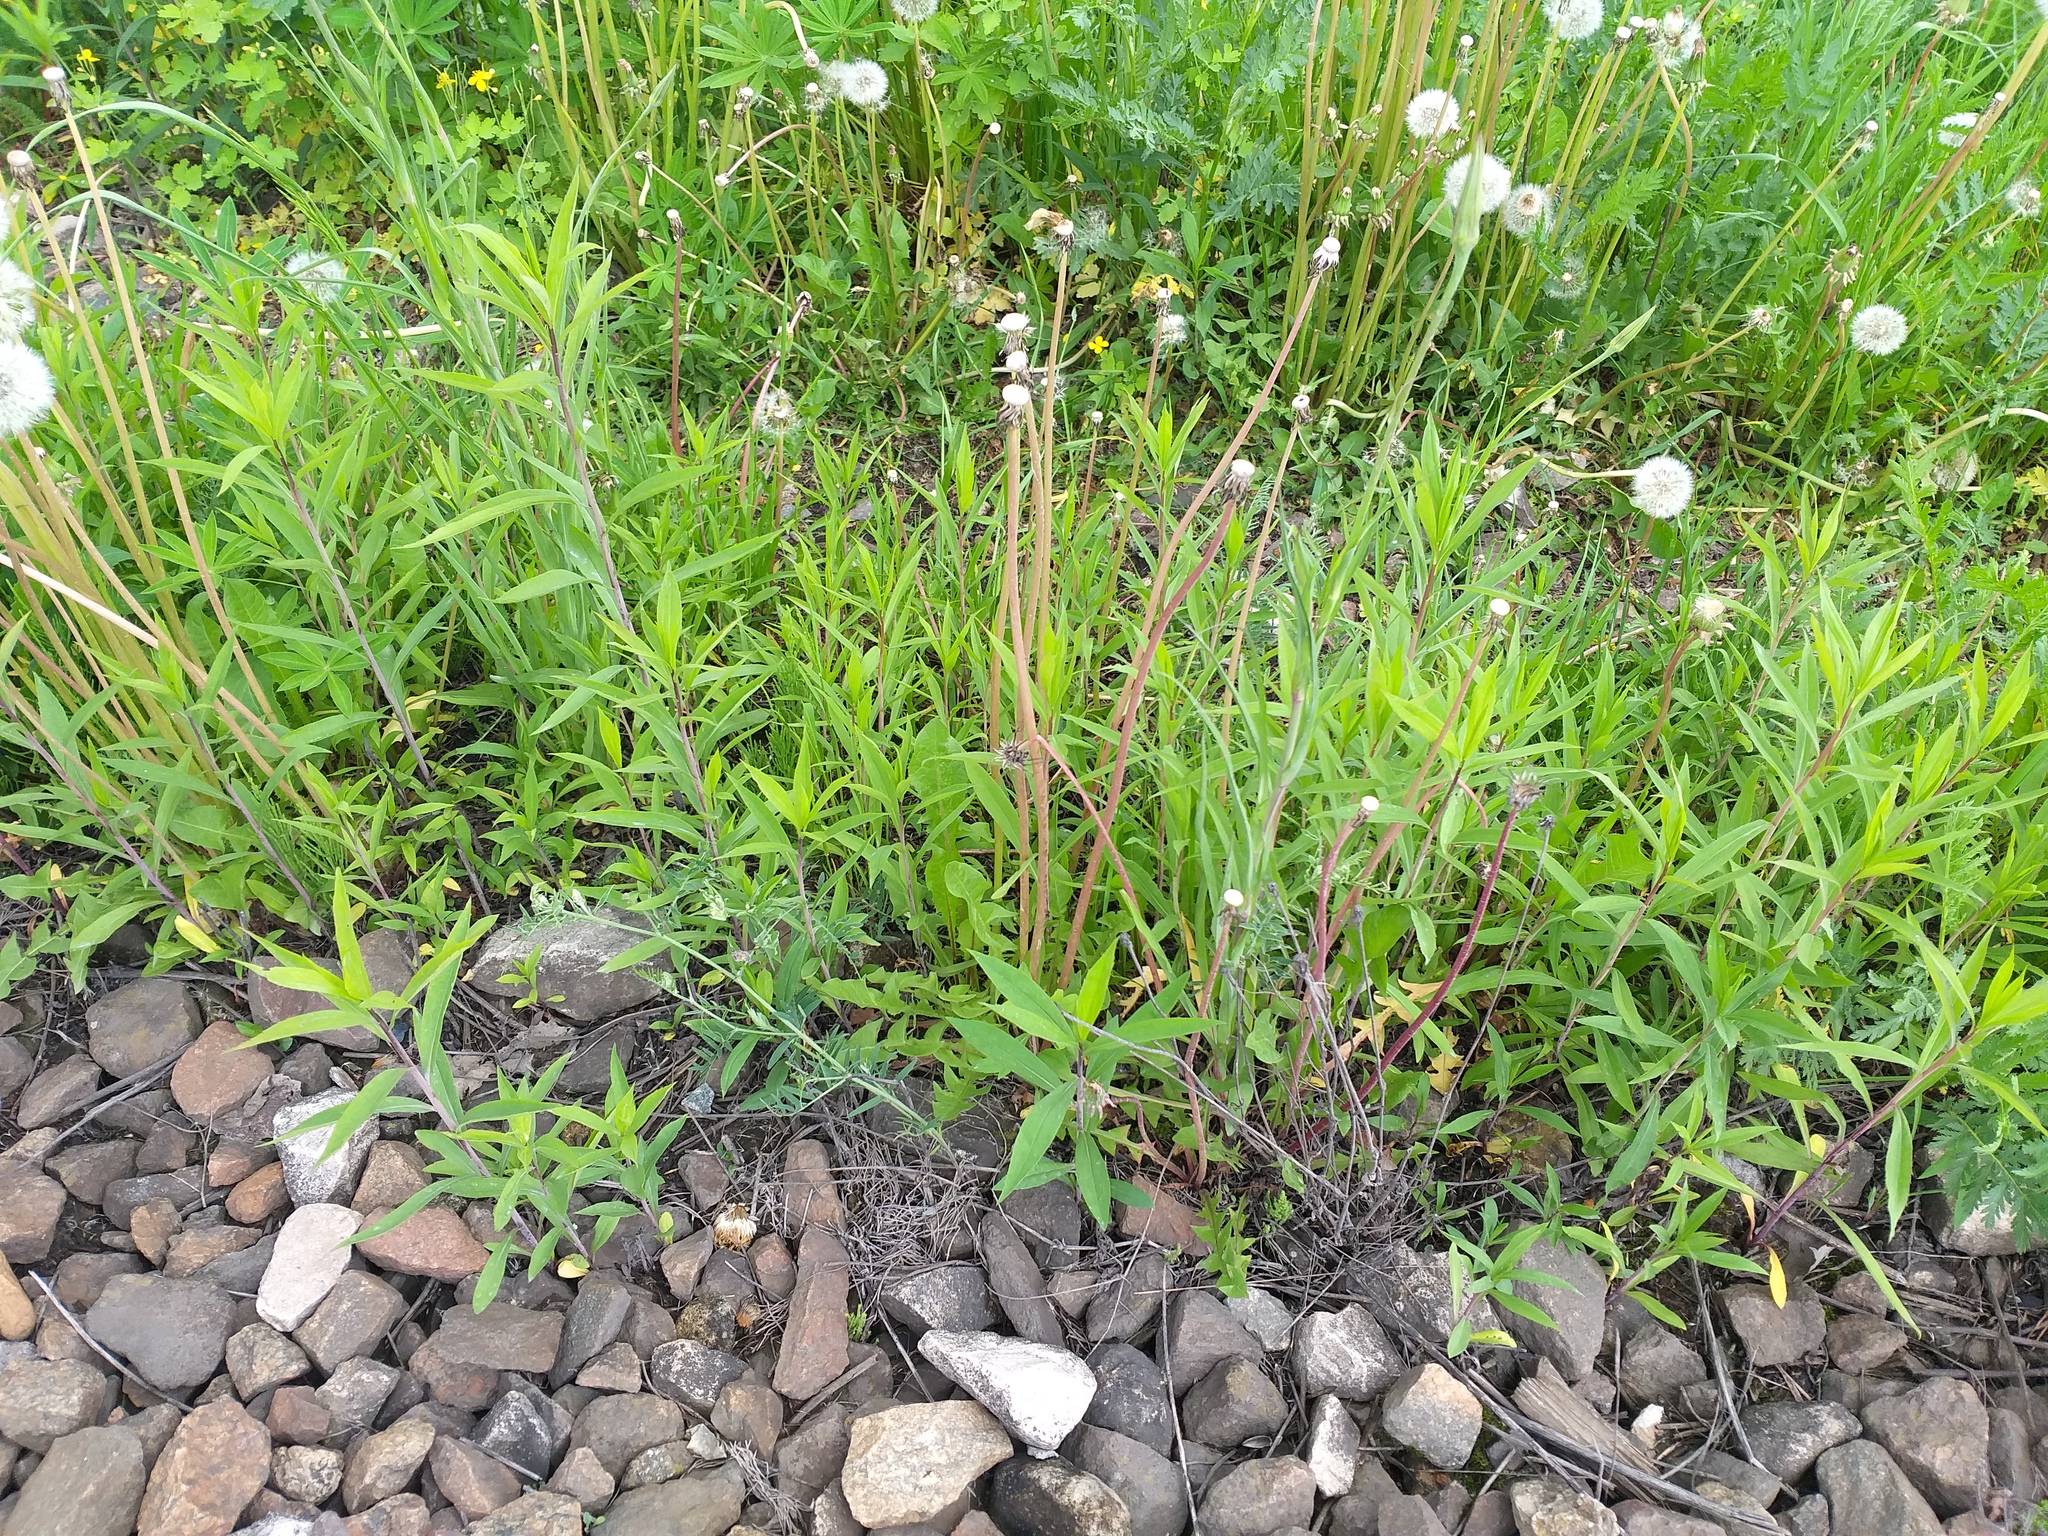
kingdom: Plantae
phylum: Tracheophyta
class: Magnoliopsida
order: Asterales
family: Asteraceae
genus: Solidago
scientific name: Solidago gigantea
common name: Giant goldenrod
